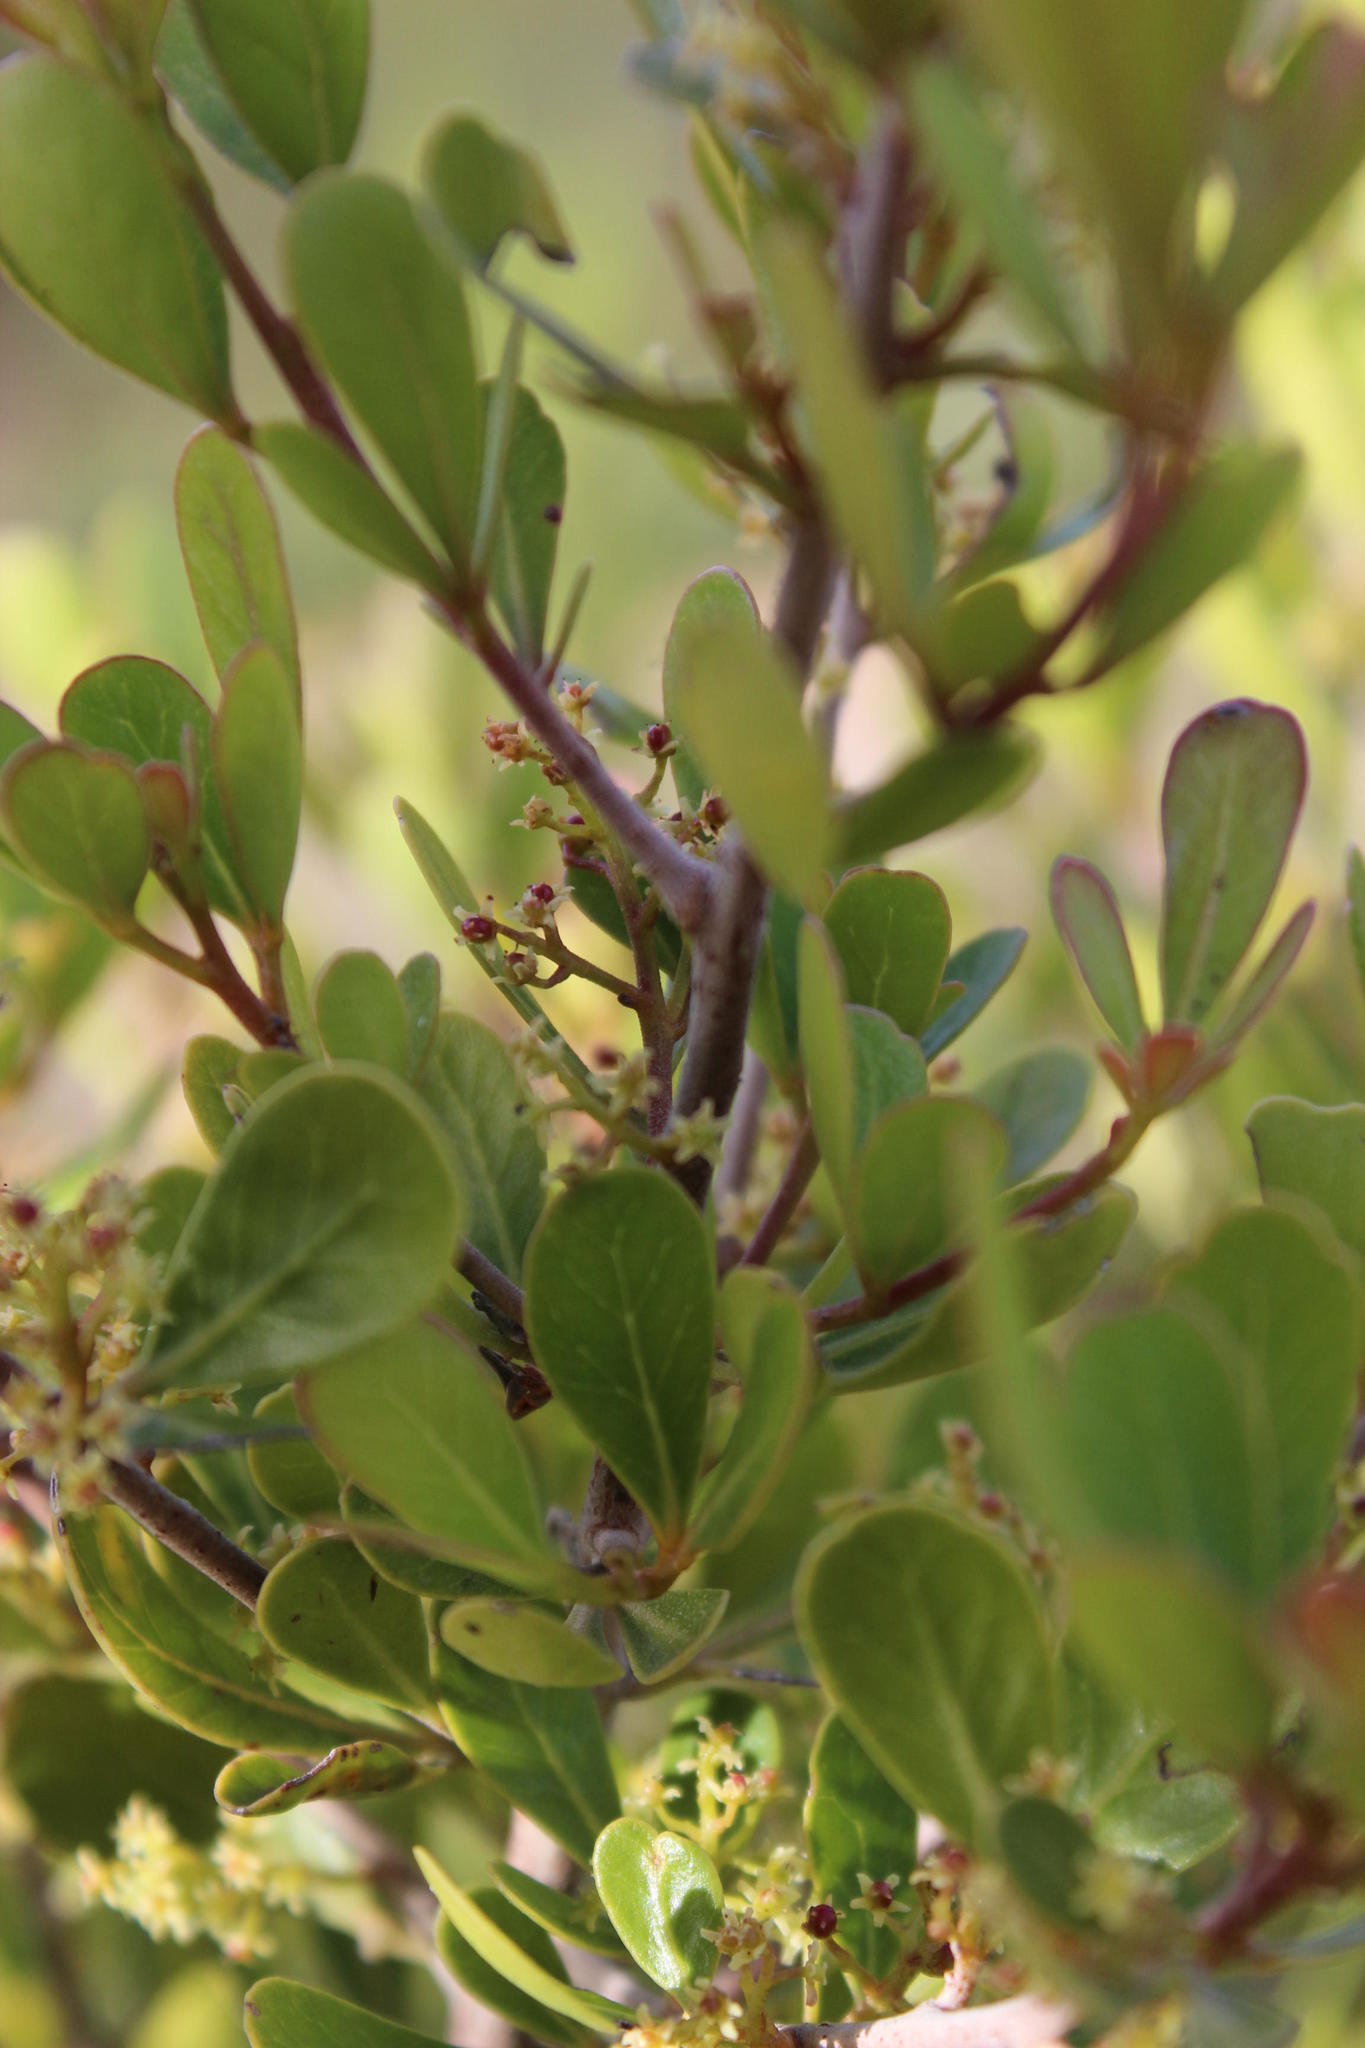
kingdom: Plantae
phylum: Tracheophyta
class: Magnoliopsida
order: Sapindales
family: Anacardiaceae
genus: Searsia
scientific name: Searsia lucida
